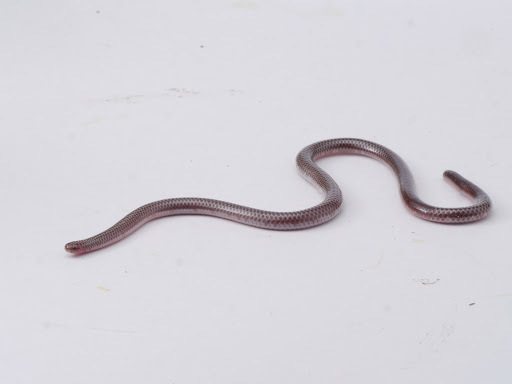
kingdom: Animalia
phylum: Chordata
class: Squamata
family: Leptotyphlopidae
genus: Rena
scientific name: Rena dulcis
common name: Texas blind snake
